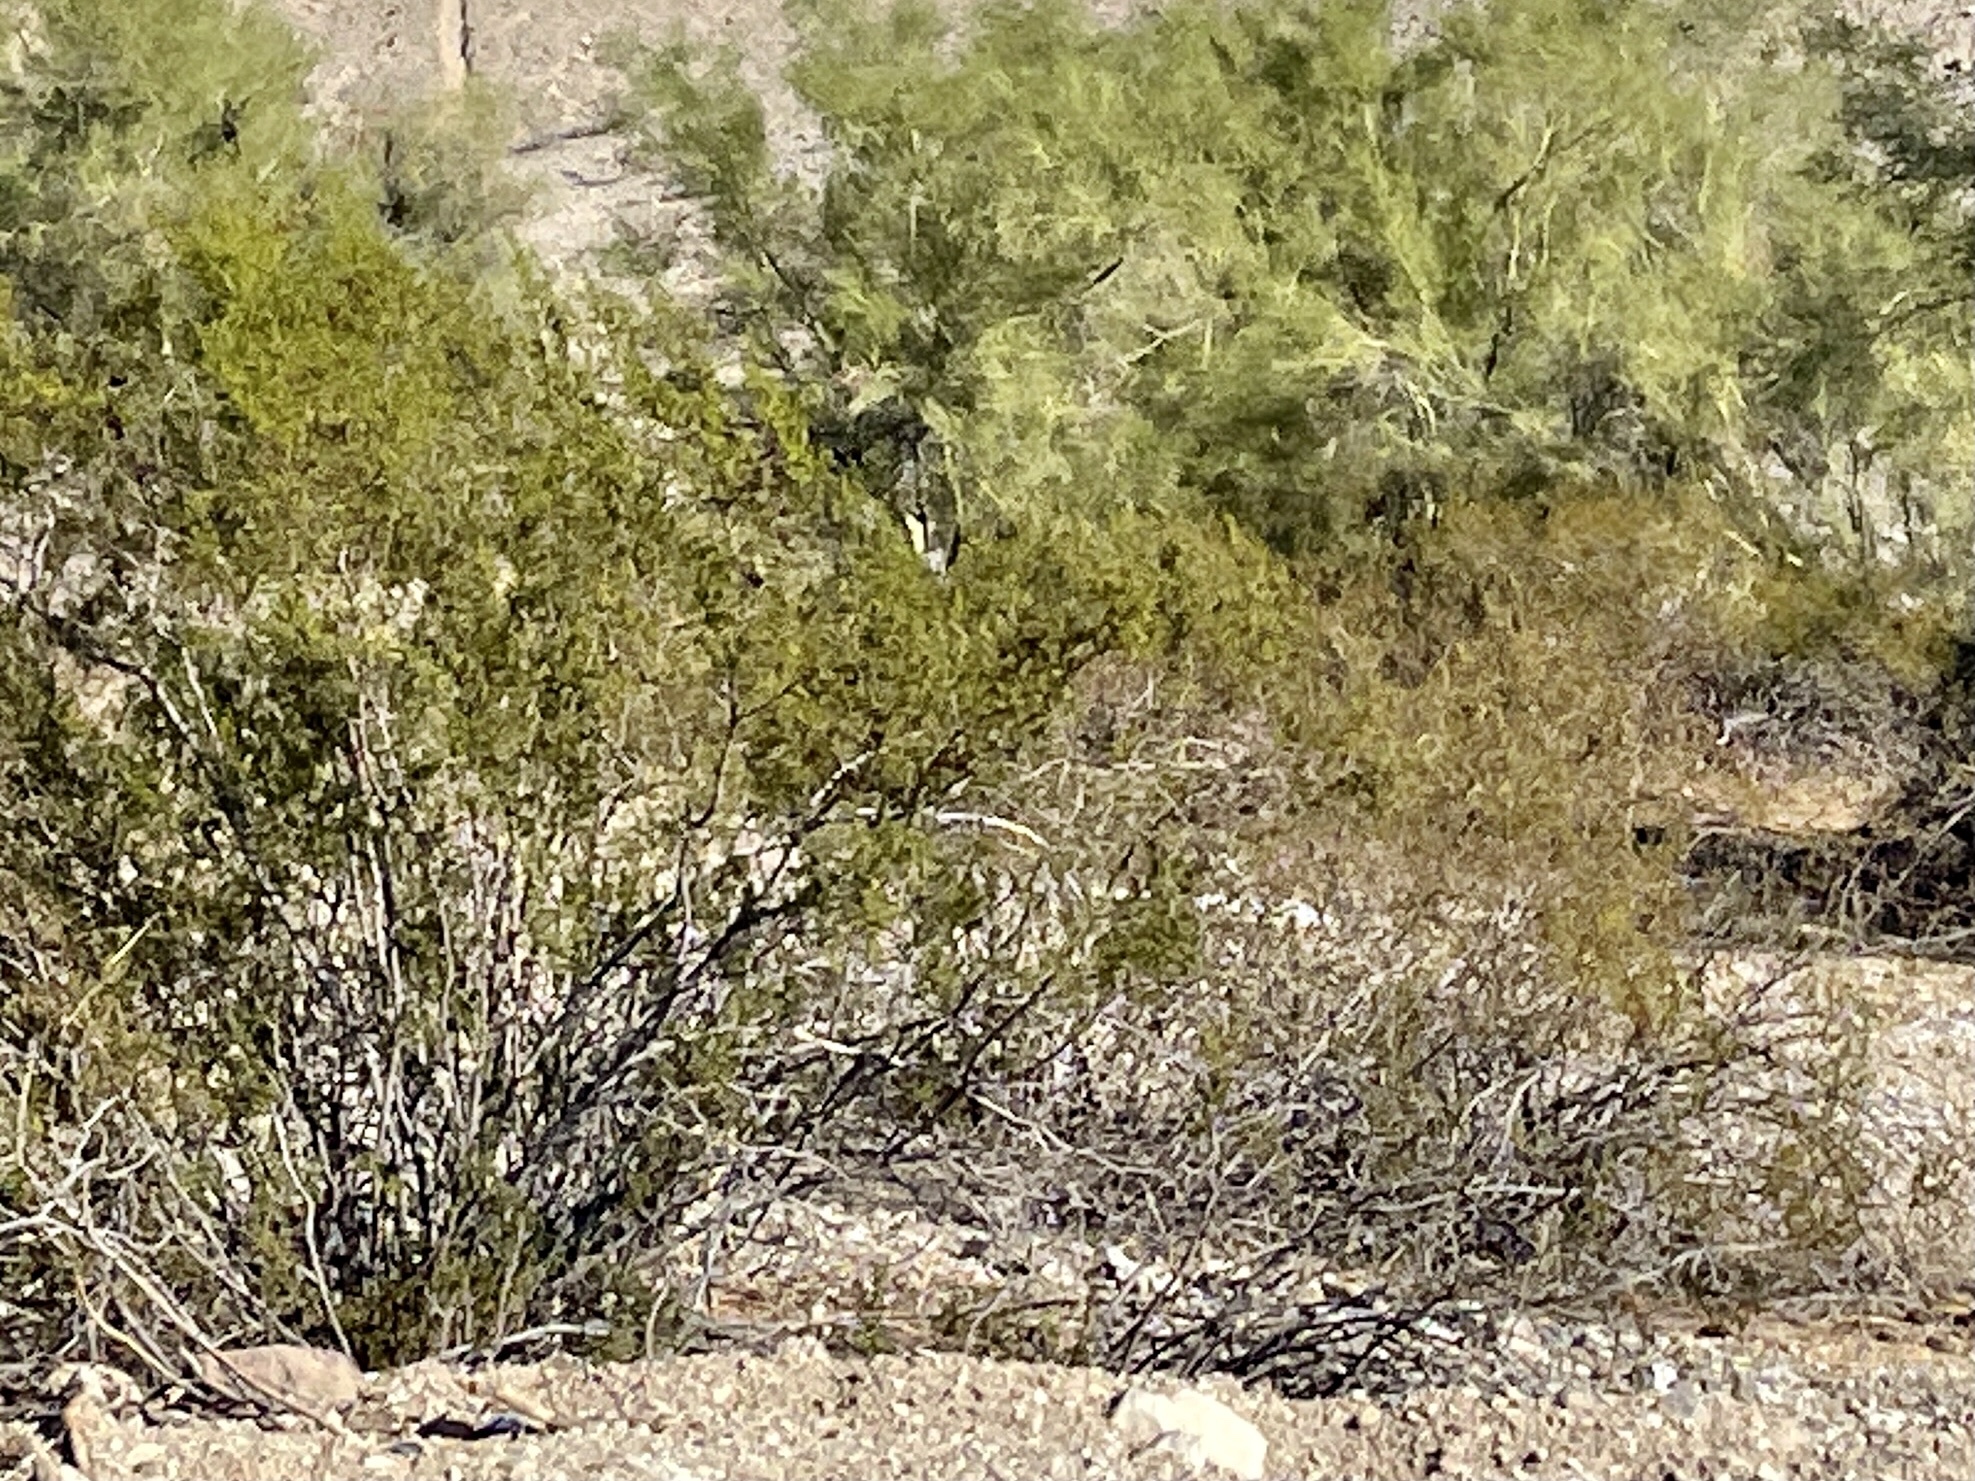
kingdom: Plantae
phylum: Tracheophyta
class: Magnoliopsida
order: Zygophyllales
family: Zygophyllaceae
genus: Larrea
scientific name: Larrea tridentata
